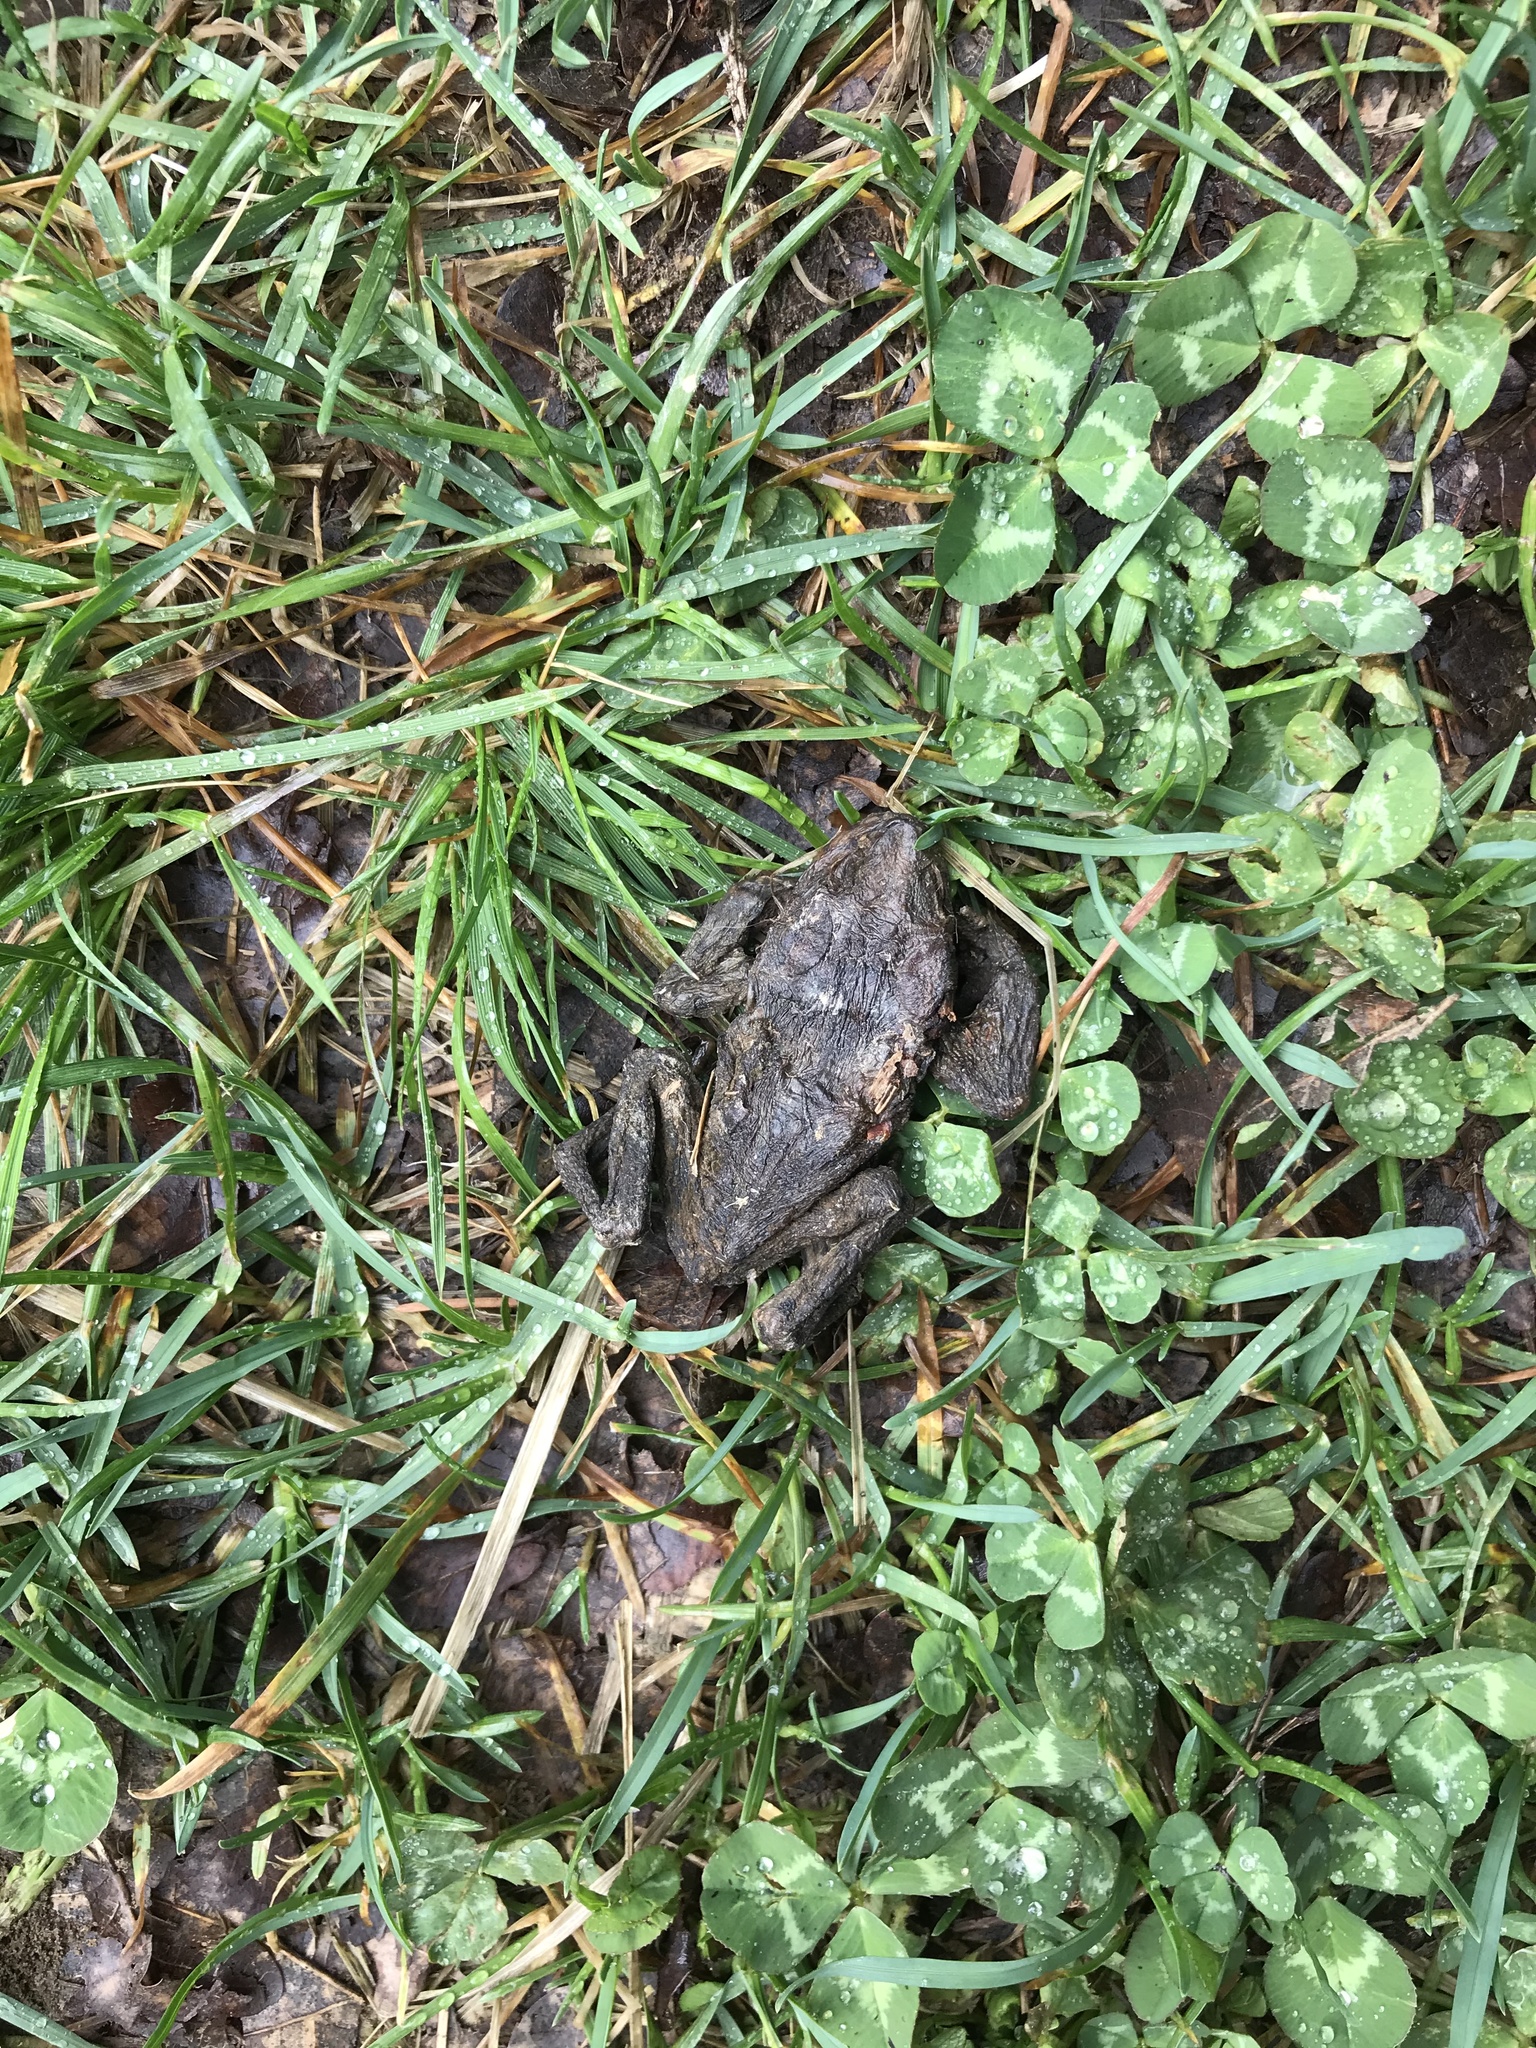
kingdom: Animalia
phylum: Chordata
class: Amphibia
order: Anura
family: Bufonidae
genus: Bufo
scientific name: Bufo bufo
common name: Common toad
